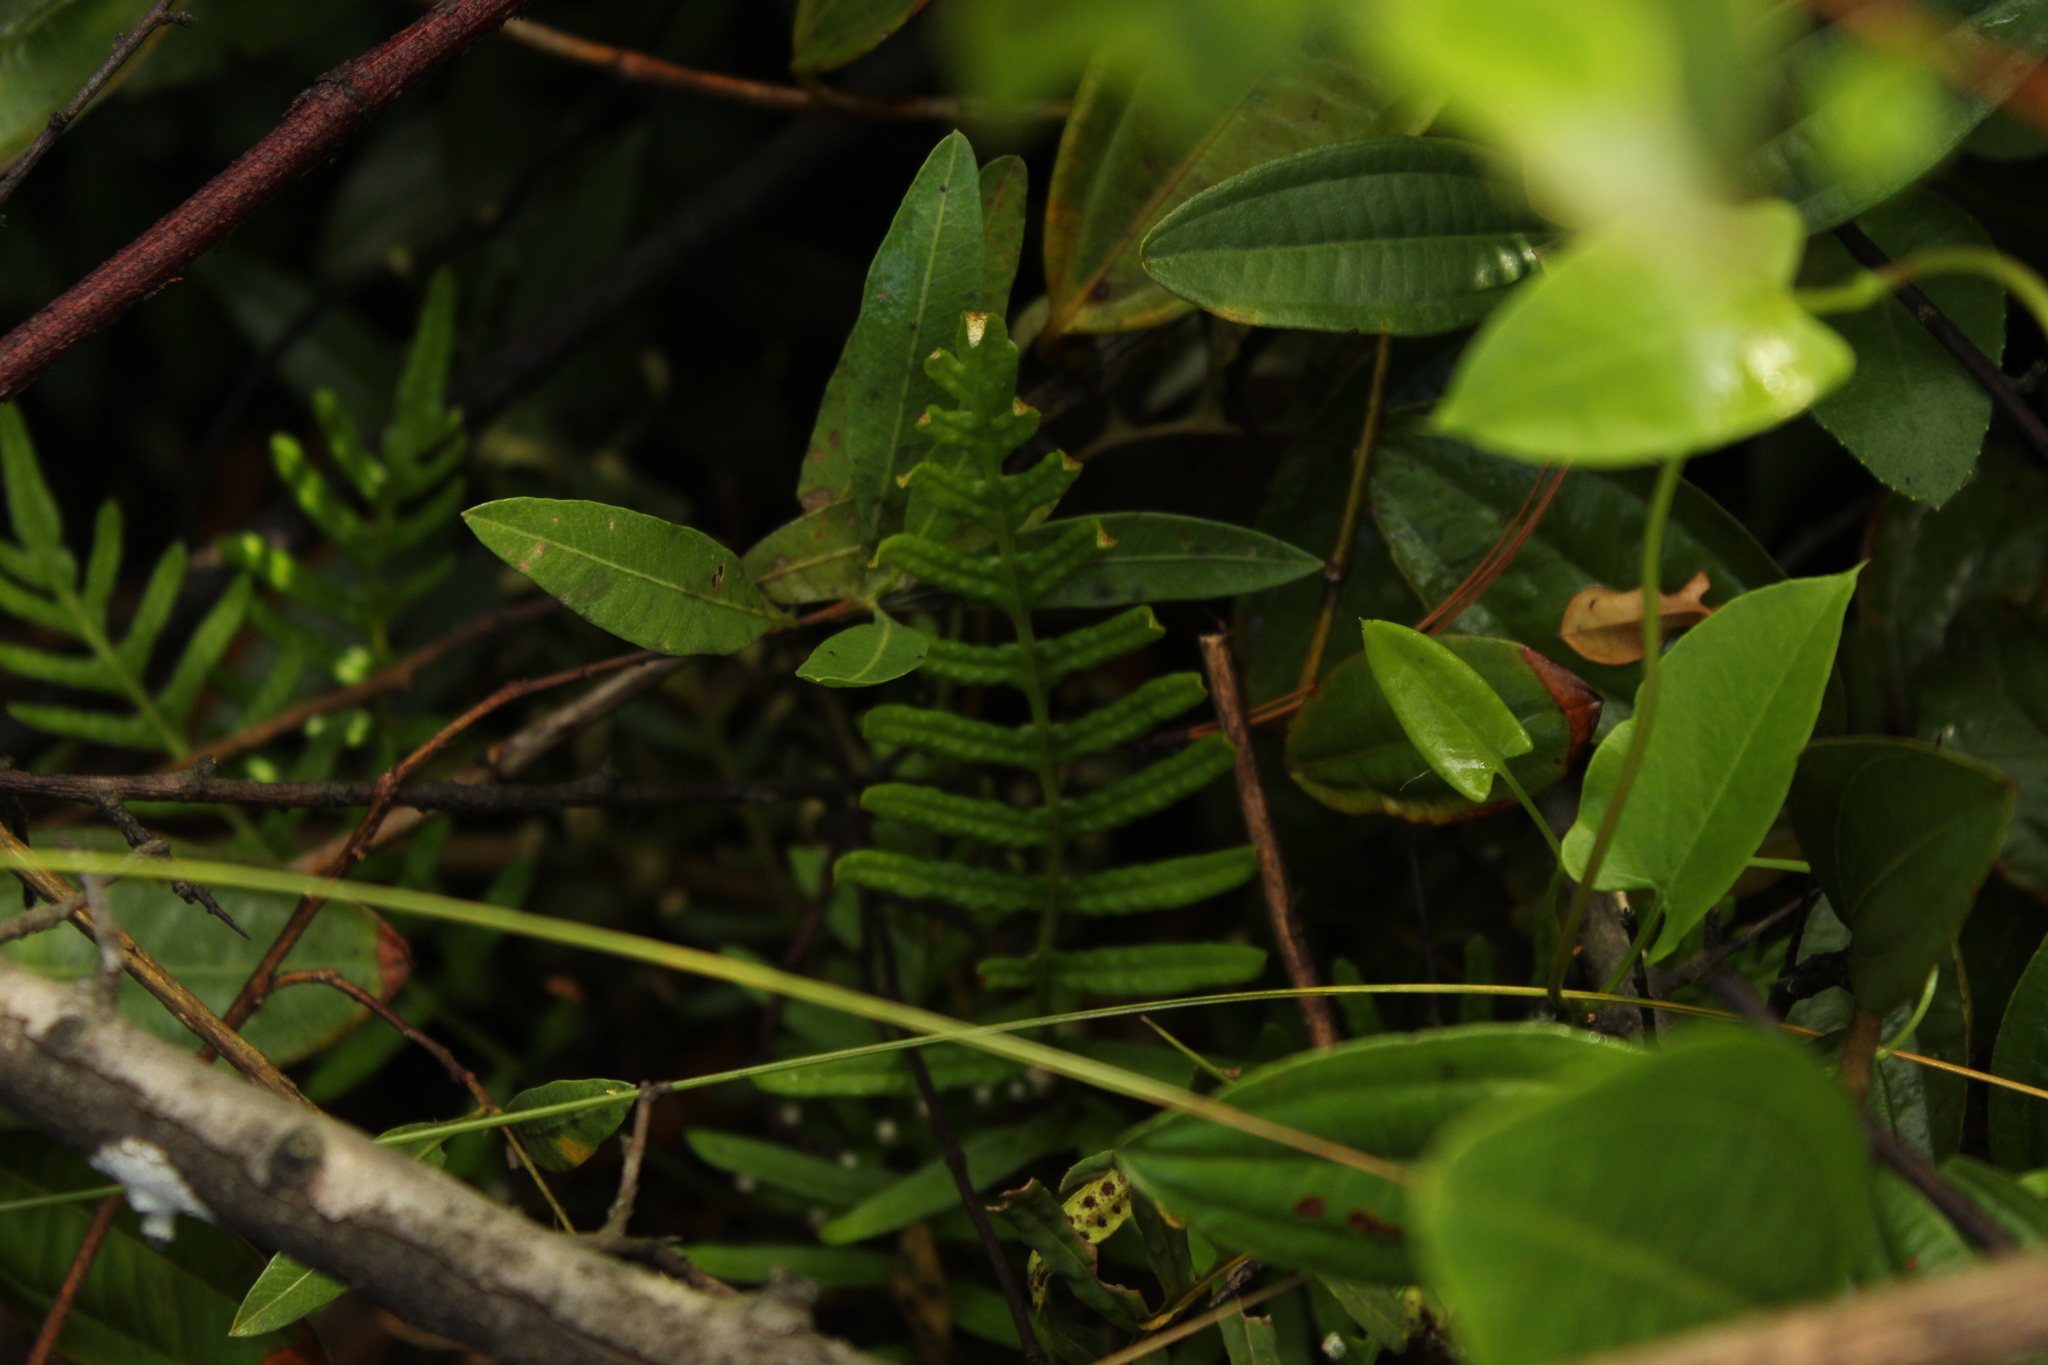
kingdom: Plantae
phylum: Tracheophyta
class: Polypodiopsida
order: Polypodiales
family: Polypodiaceae
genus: Pleopeltis
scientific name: Pleopeltis orientalis
